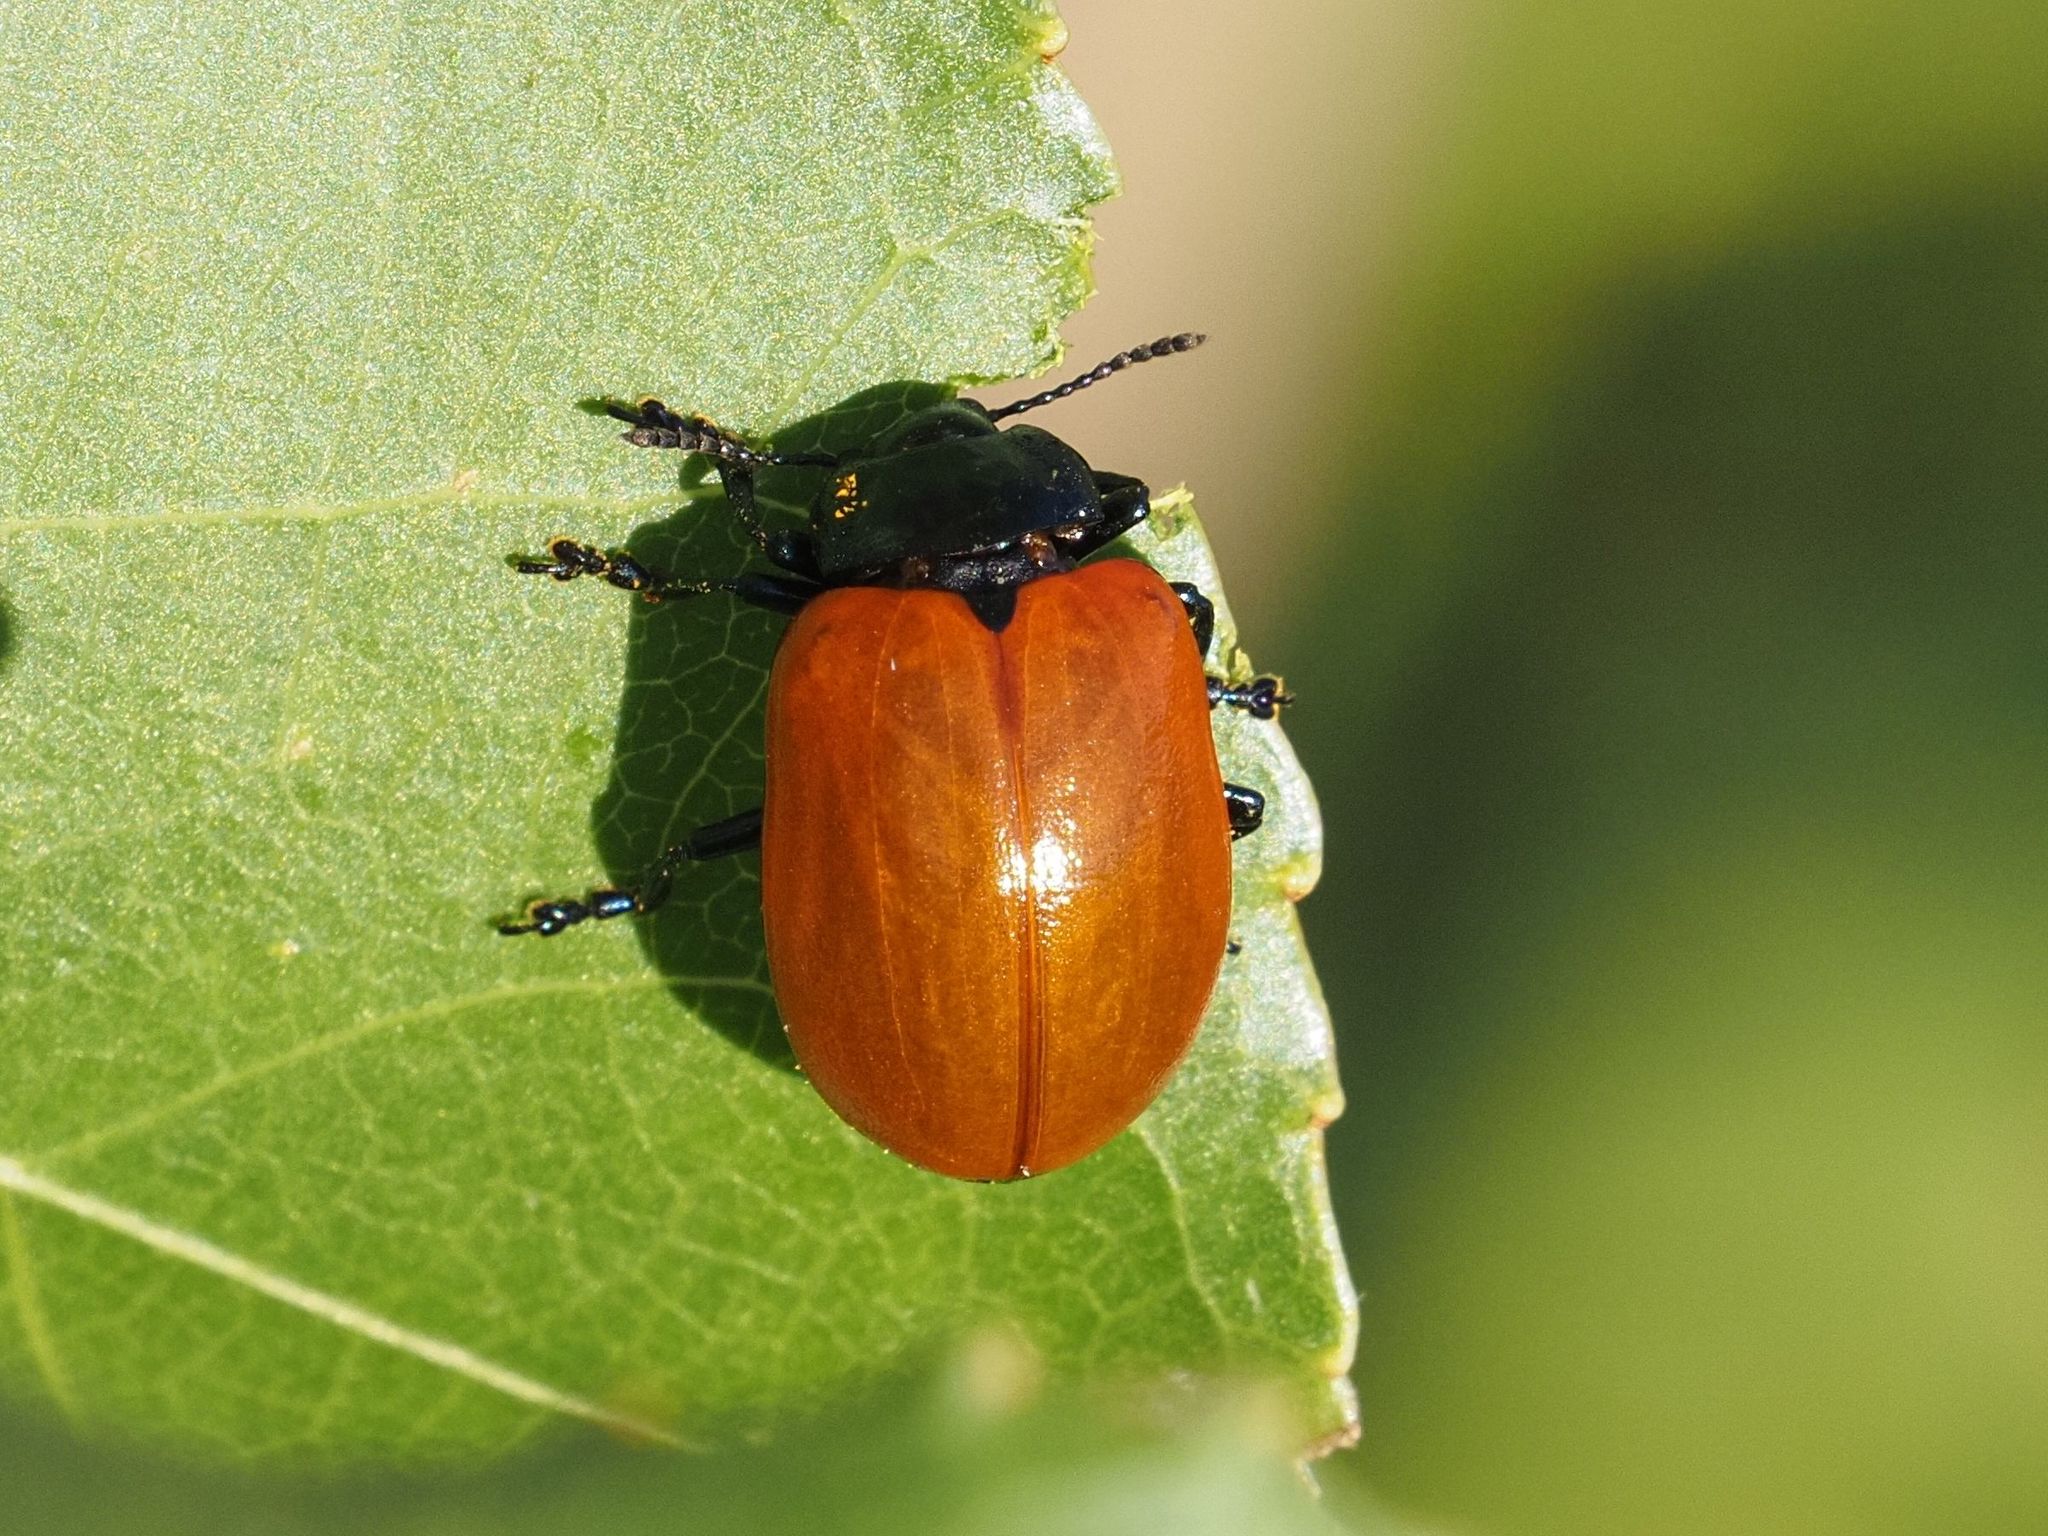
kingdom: Animalia
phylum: Arthropoda
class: Insecta
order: Coleoptera
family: Chrysomelidae
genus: Chrysomela
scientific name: Chrysomela populi
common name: Red poplar leaf beetle
